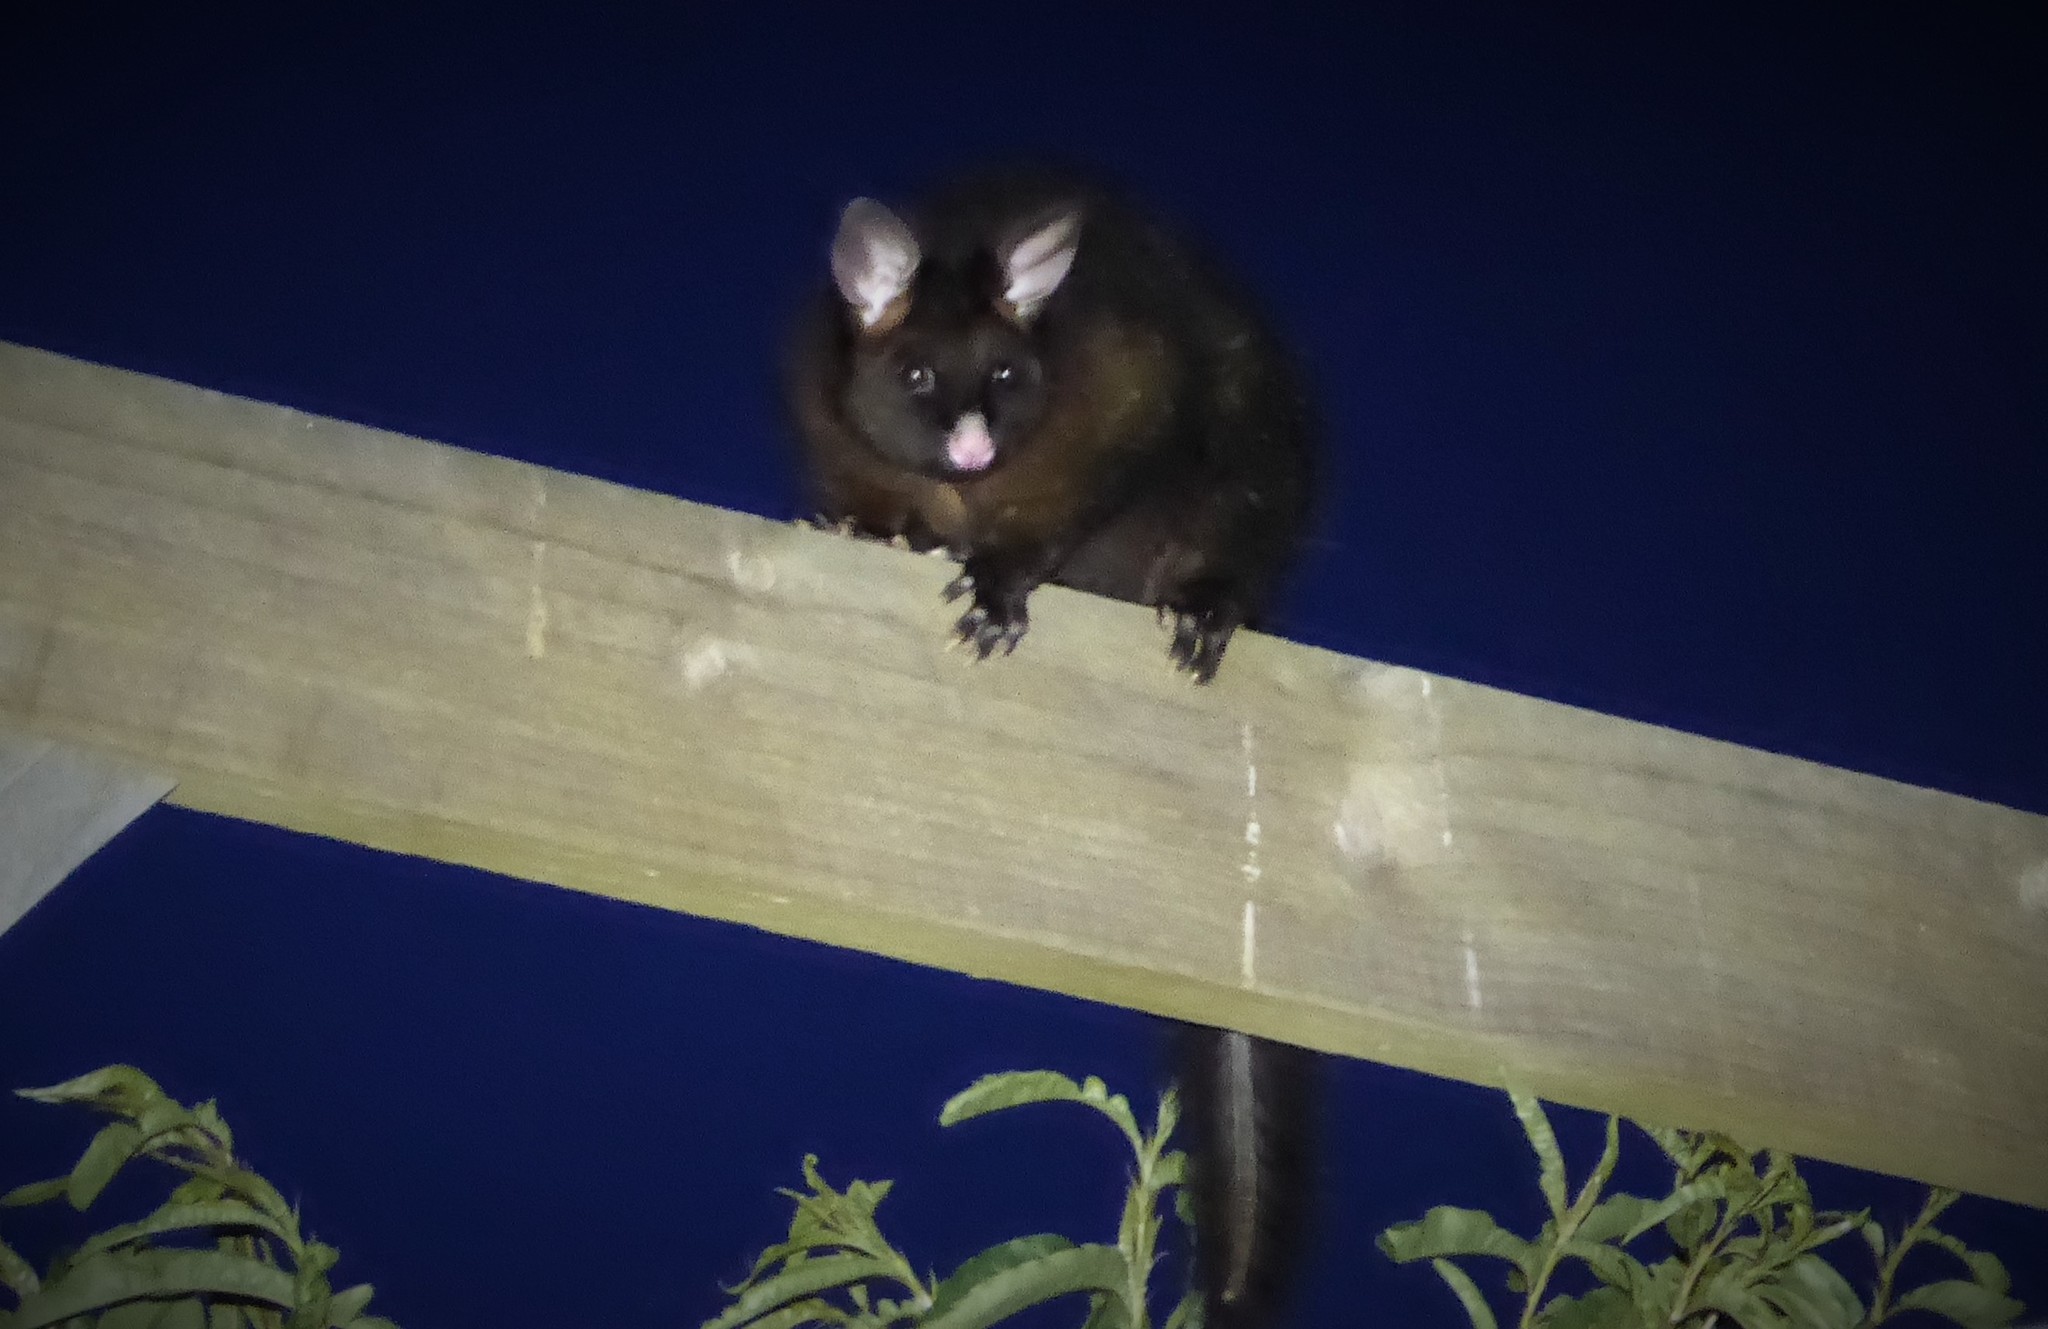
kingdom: Animalia
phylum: Chordata
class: Mammalia
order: Diprotodontia
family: Phalangeridae
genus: Trichosurus
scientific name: Trichosurus vulpecula
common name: Common brushtail
